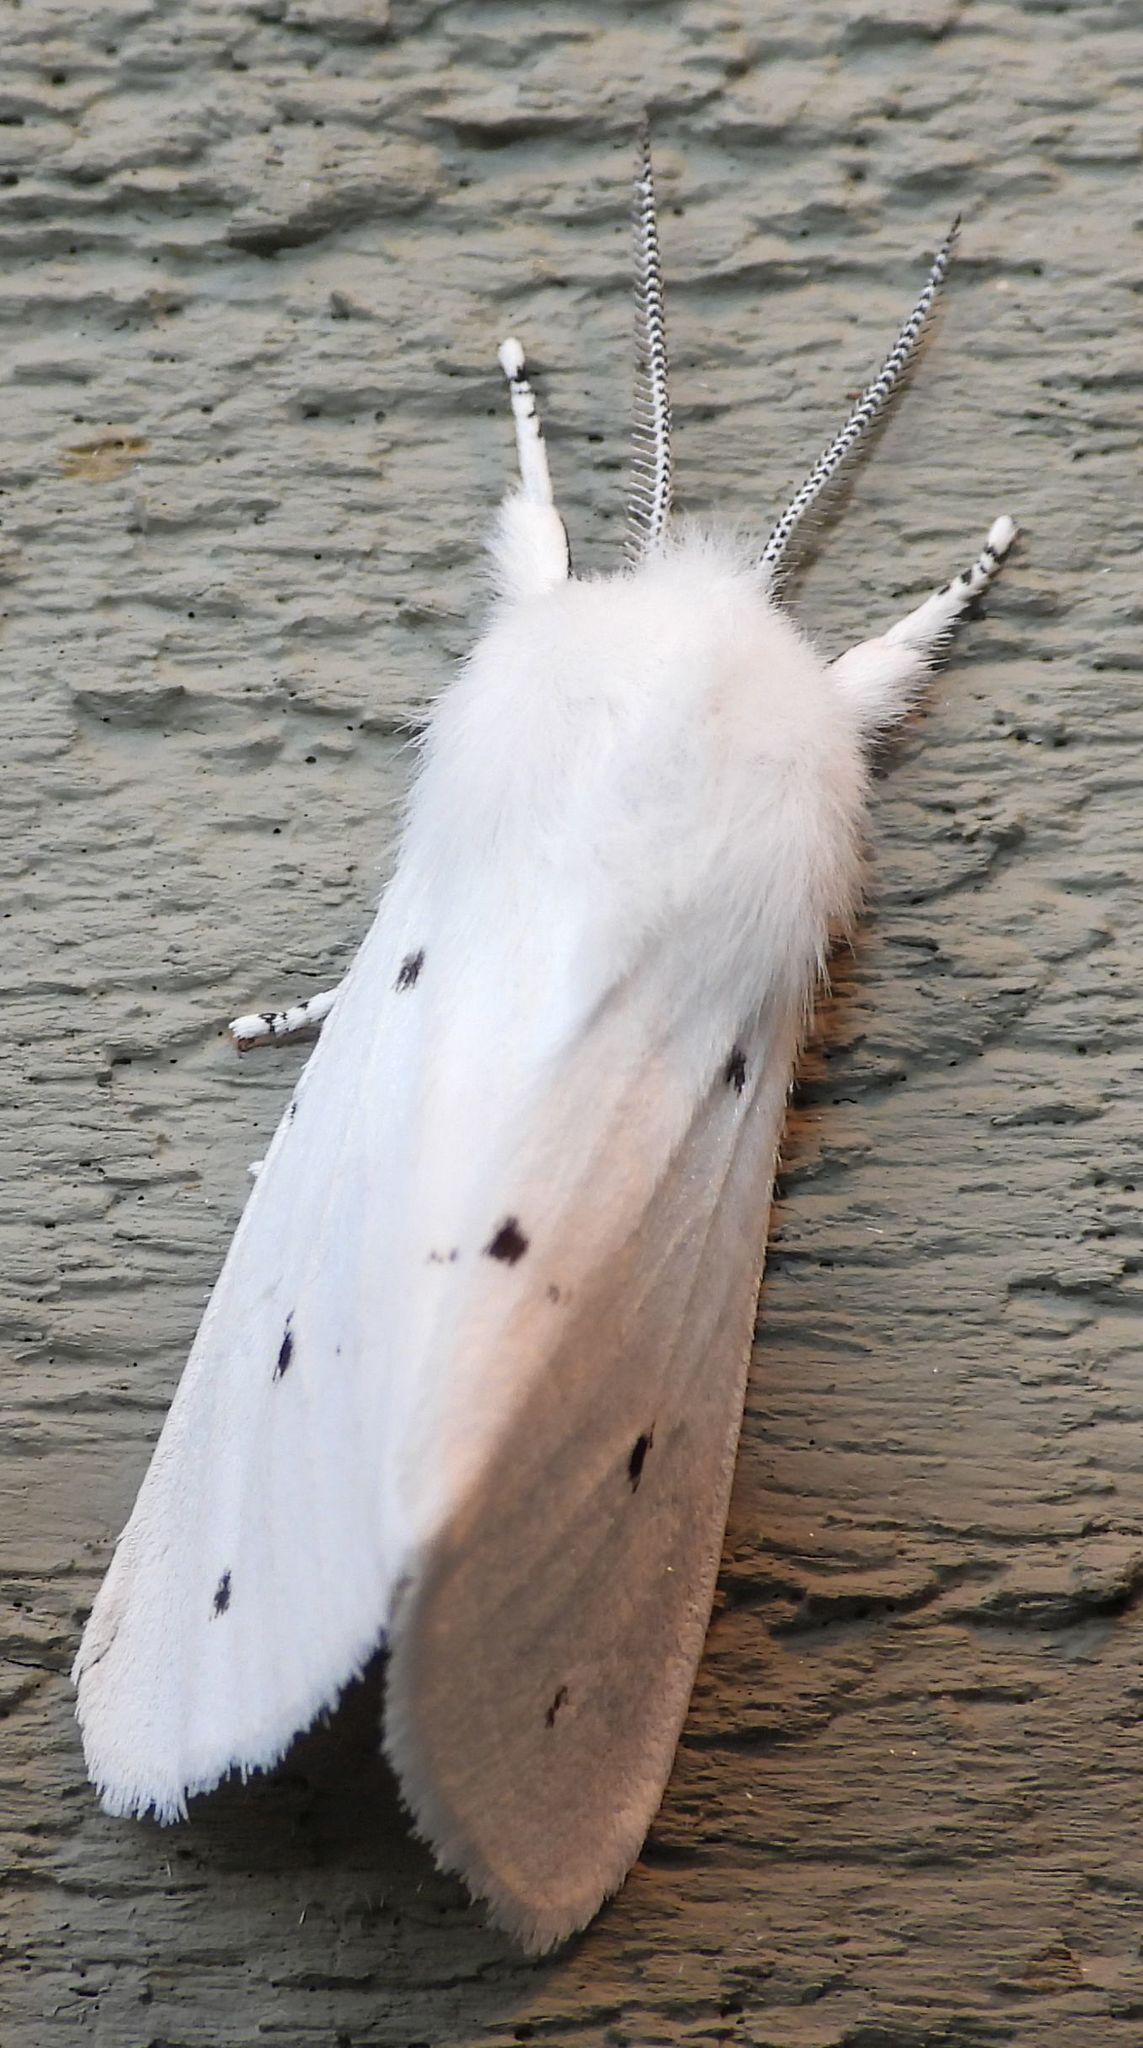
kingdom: Animalia
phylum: Arthropoda
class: Insecta
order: Lepidoptera
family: Erebidae
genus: Spilosoma
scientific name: Spilosoma virginica
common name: Virginia tiger moth
